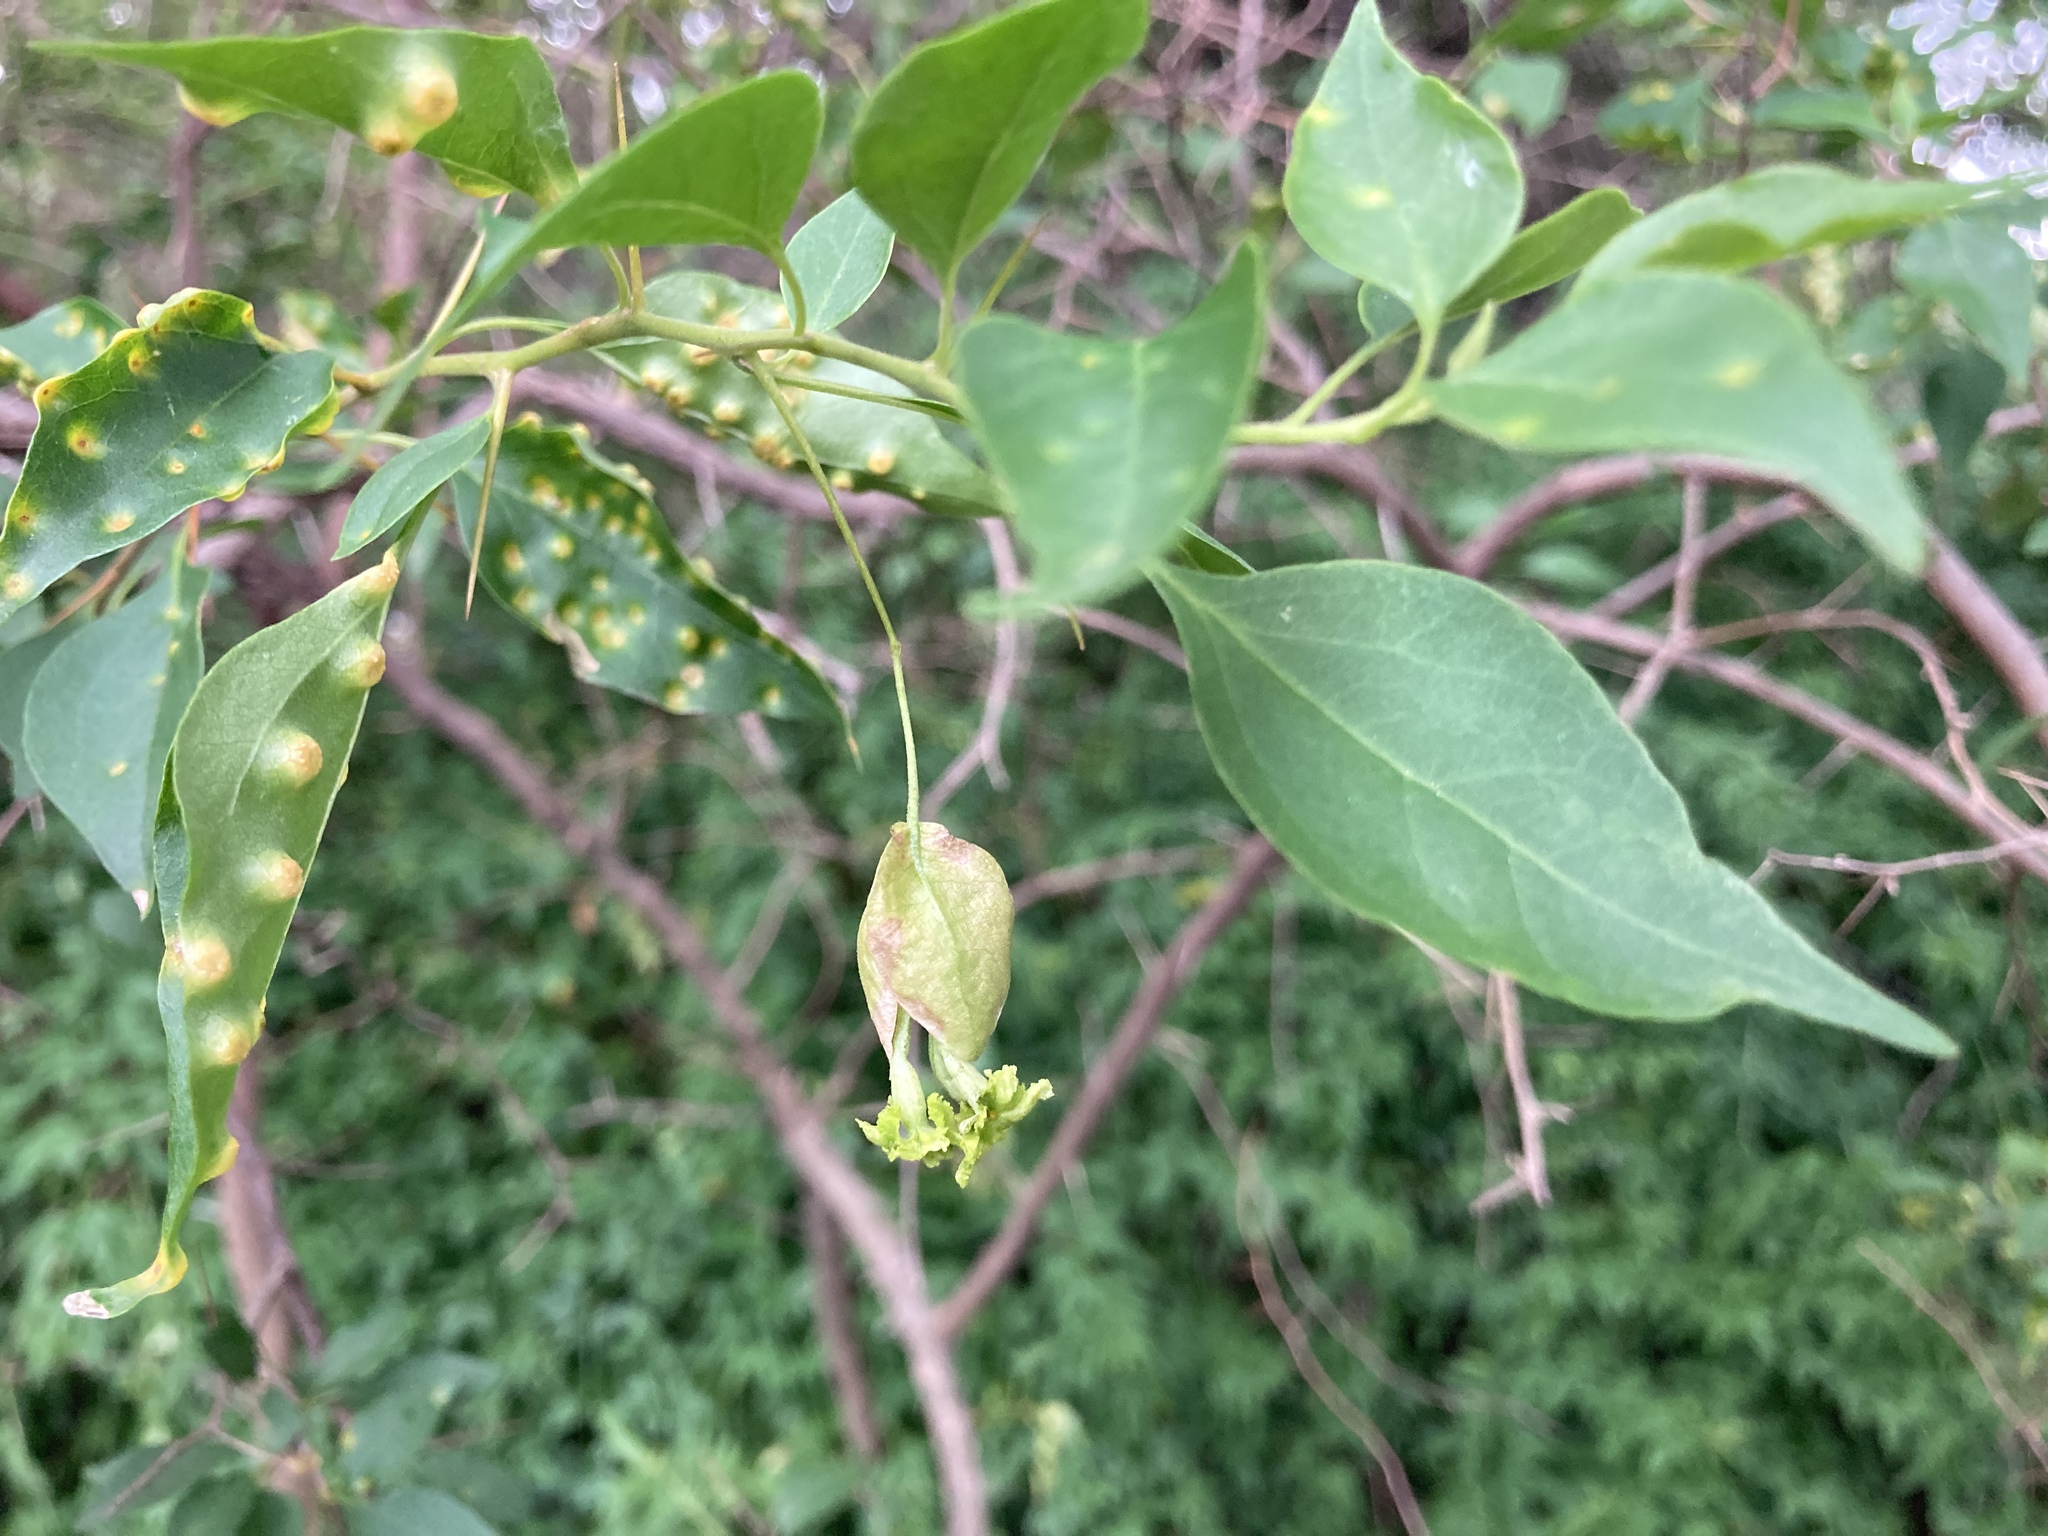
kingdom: Plantae
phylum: Tracheophyta
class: Magnoliopsida
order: Caryophyllales
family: Nyctaginaceae
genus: Bougainvillea
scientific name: Bougainvillea stipitata
